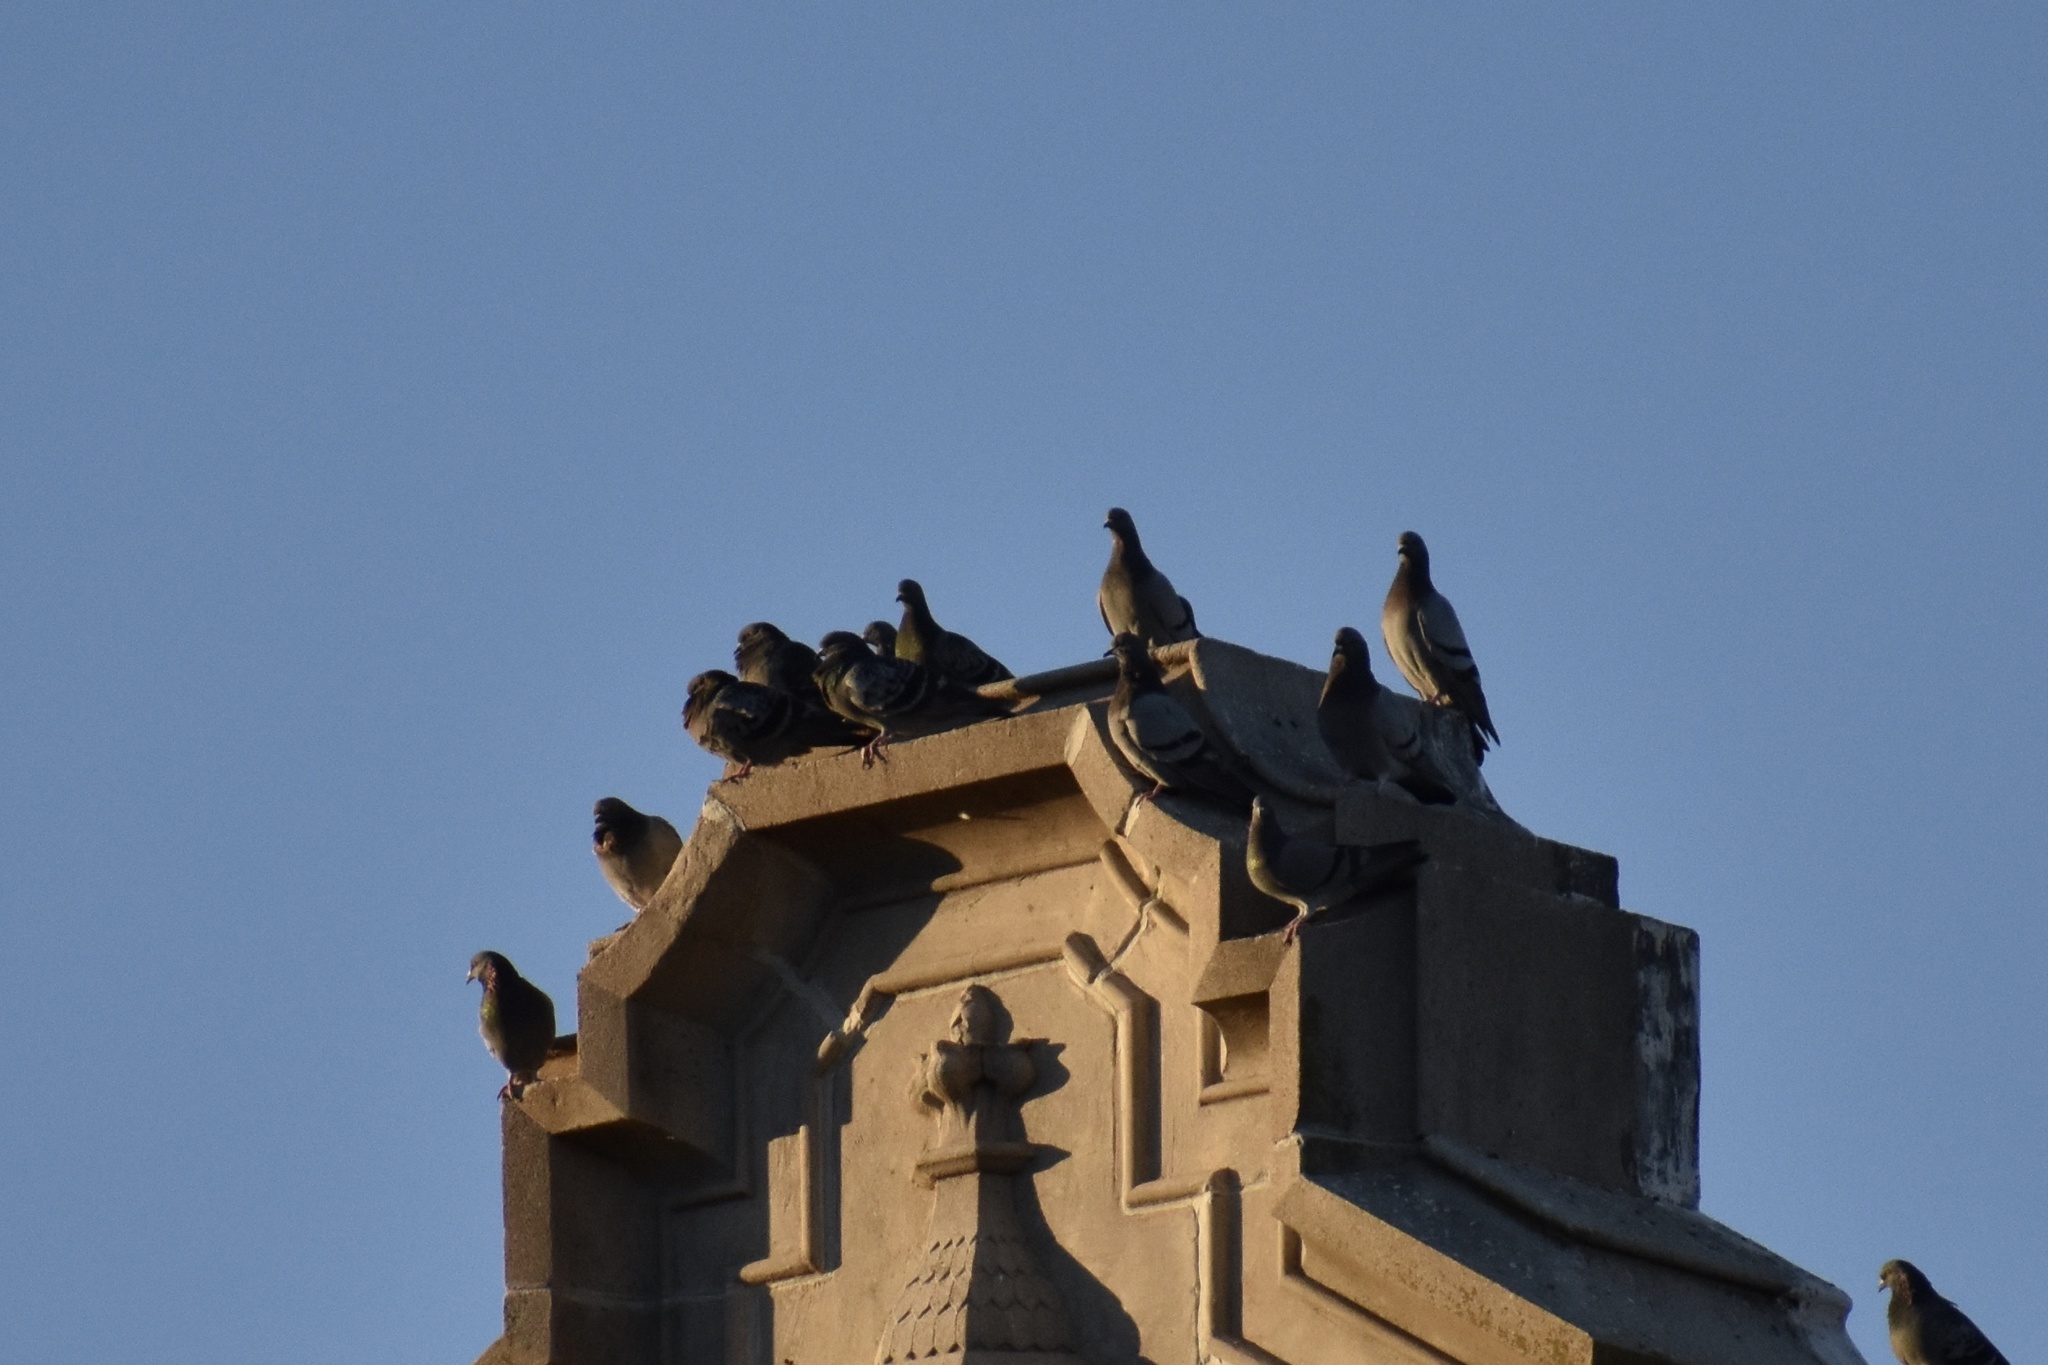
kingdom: Animalia
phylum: Chordata
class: Aves
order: Columbiformes
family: Columbidae
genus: Columba
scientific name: Columba livia
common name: Rock pigeon
